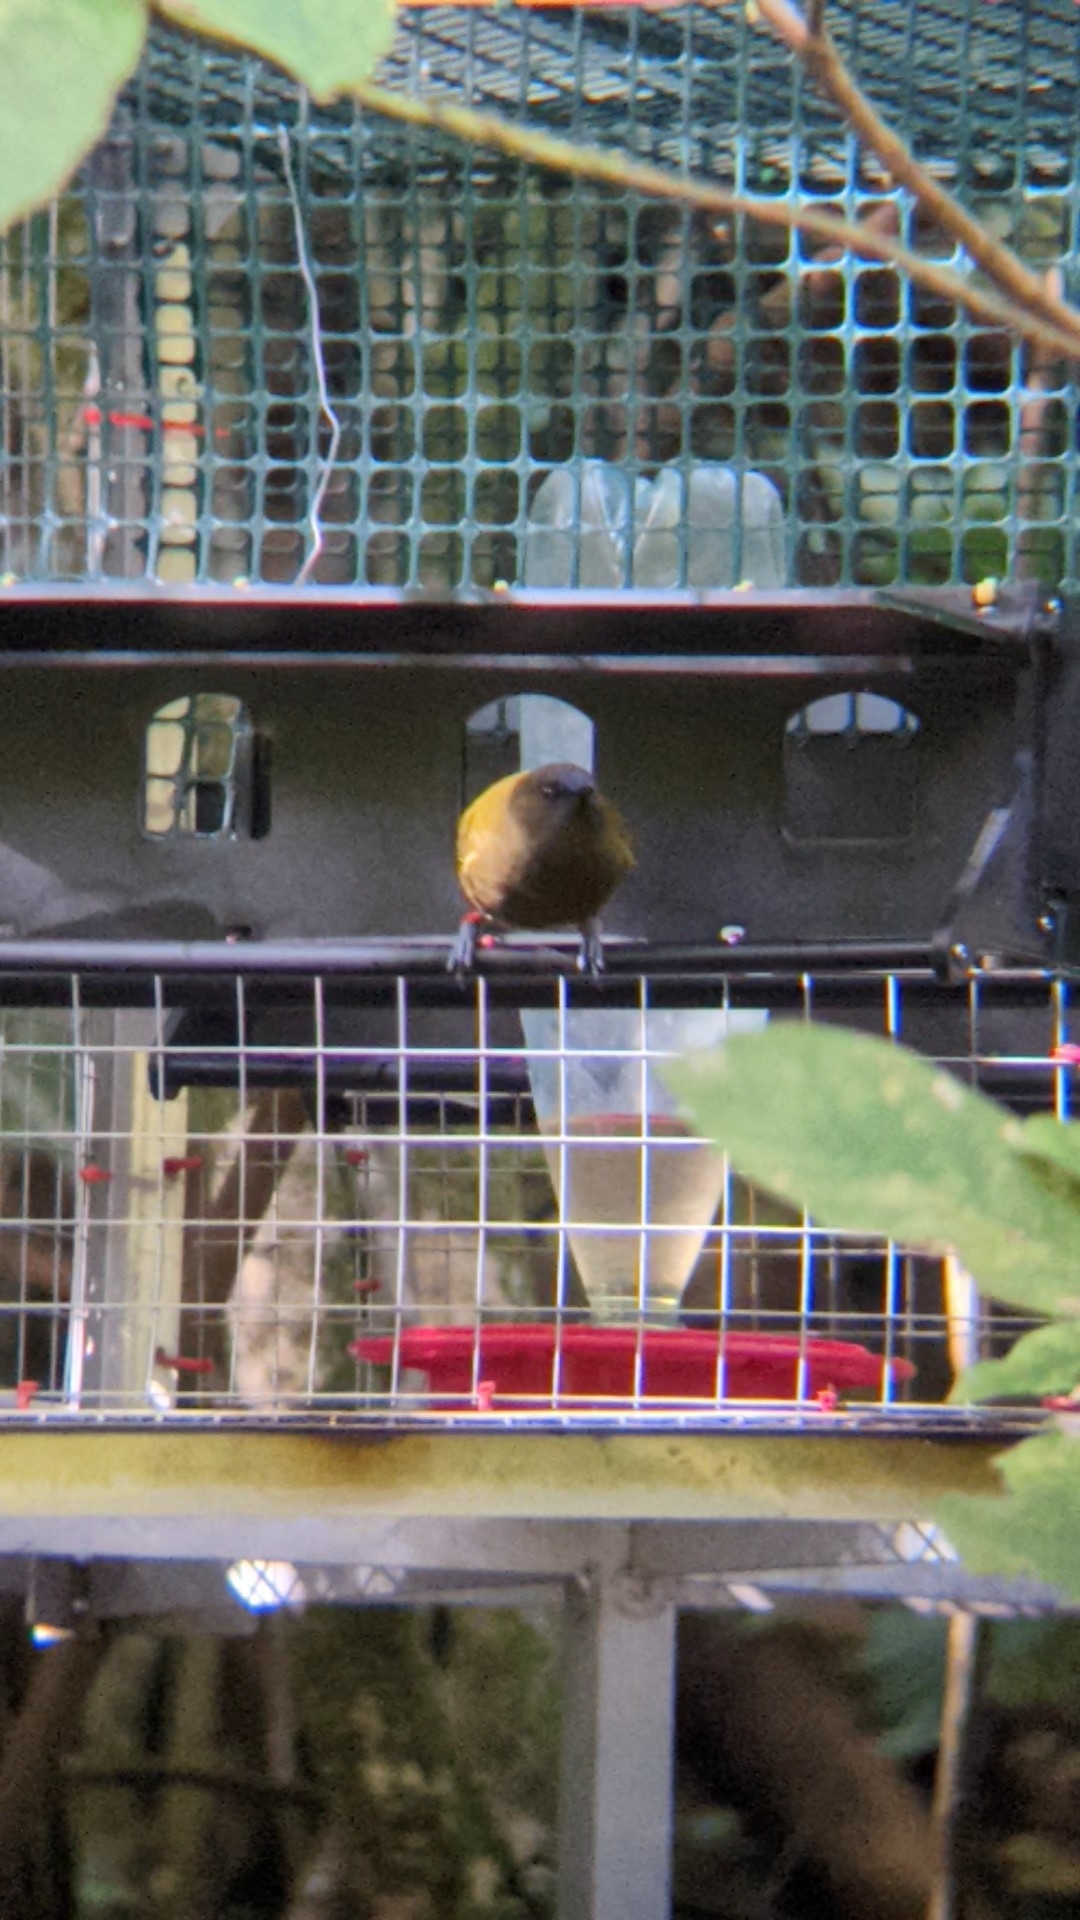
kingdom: Animalia
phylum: Chordata
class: Aves
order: Passeriformes
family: Meliphagidae
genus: Anthornis
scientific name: Anthornis melanura
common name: New zealand bellbird
